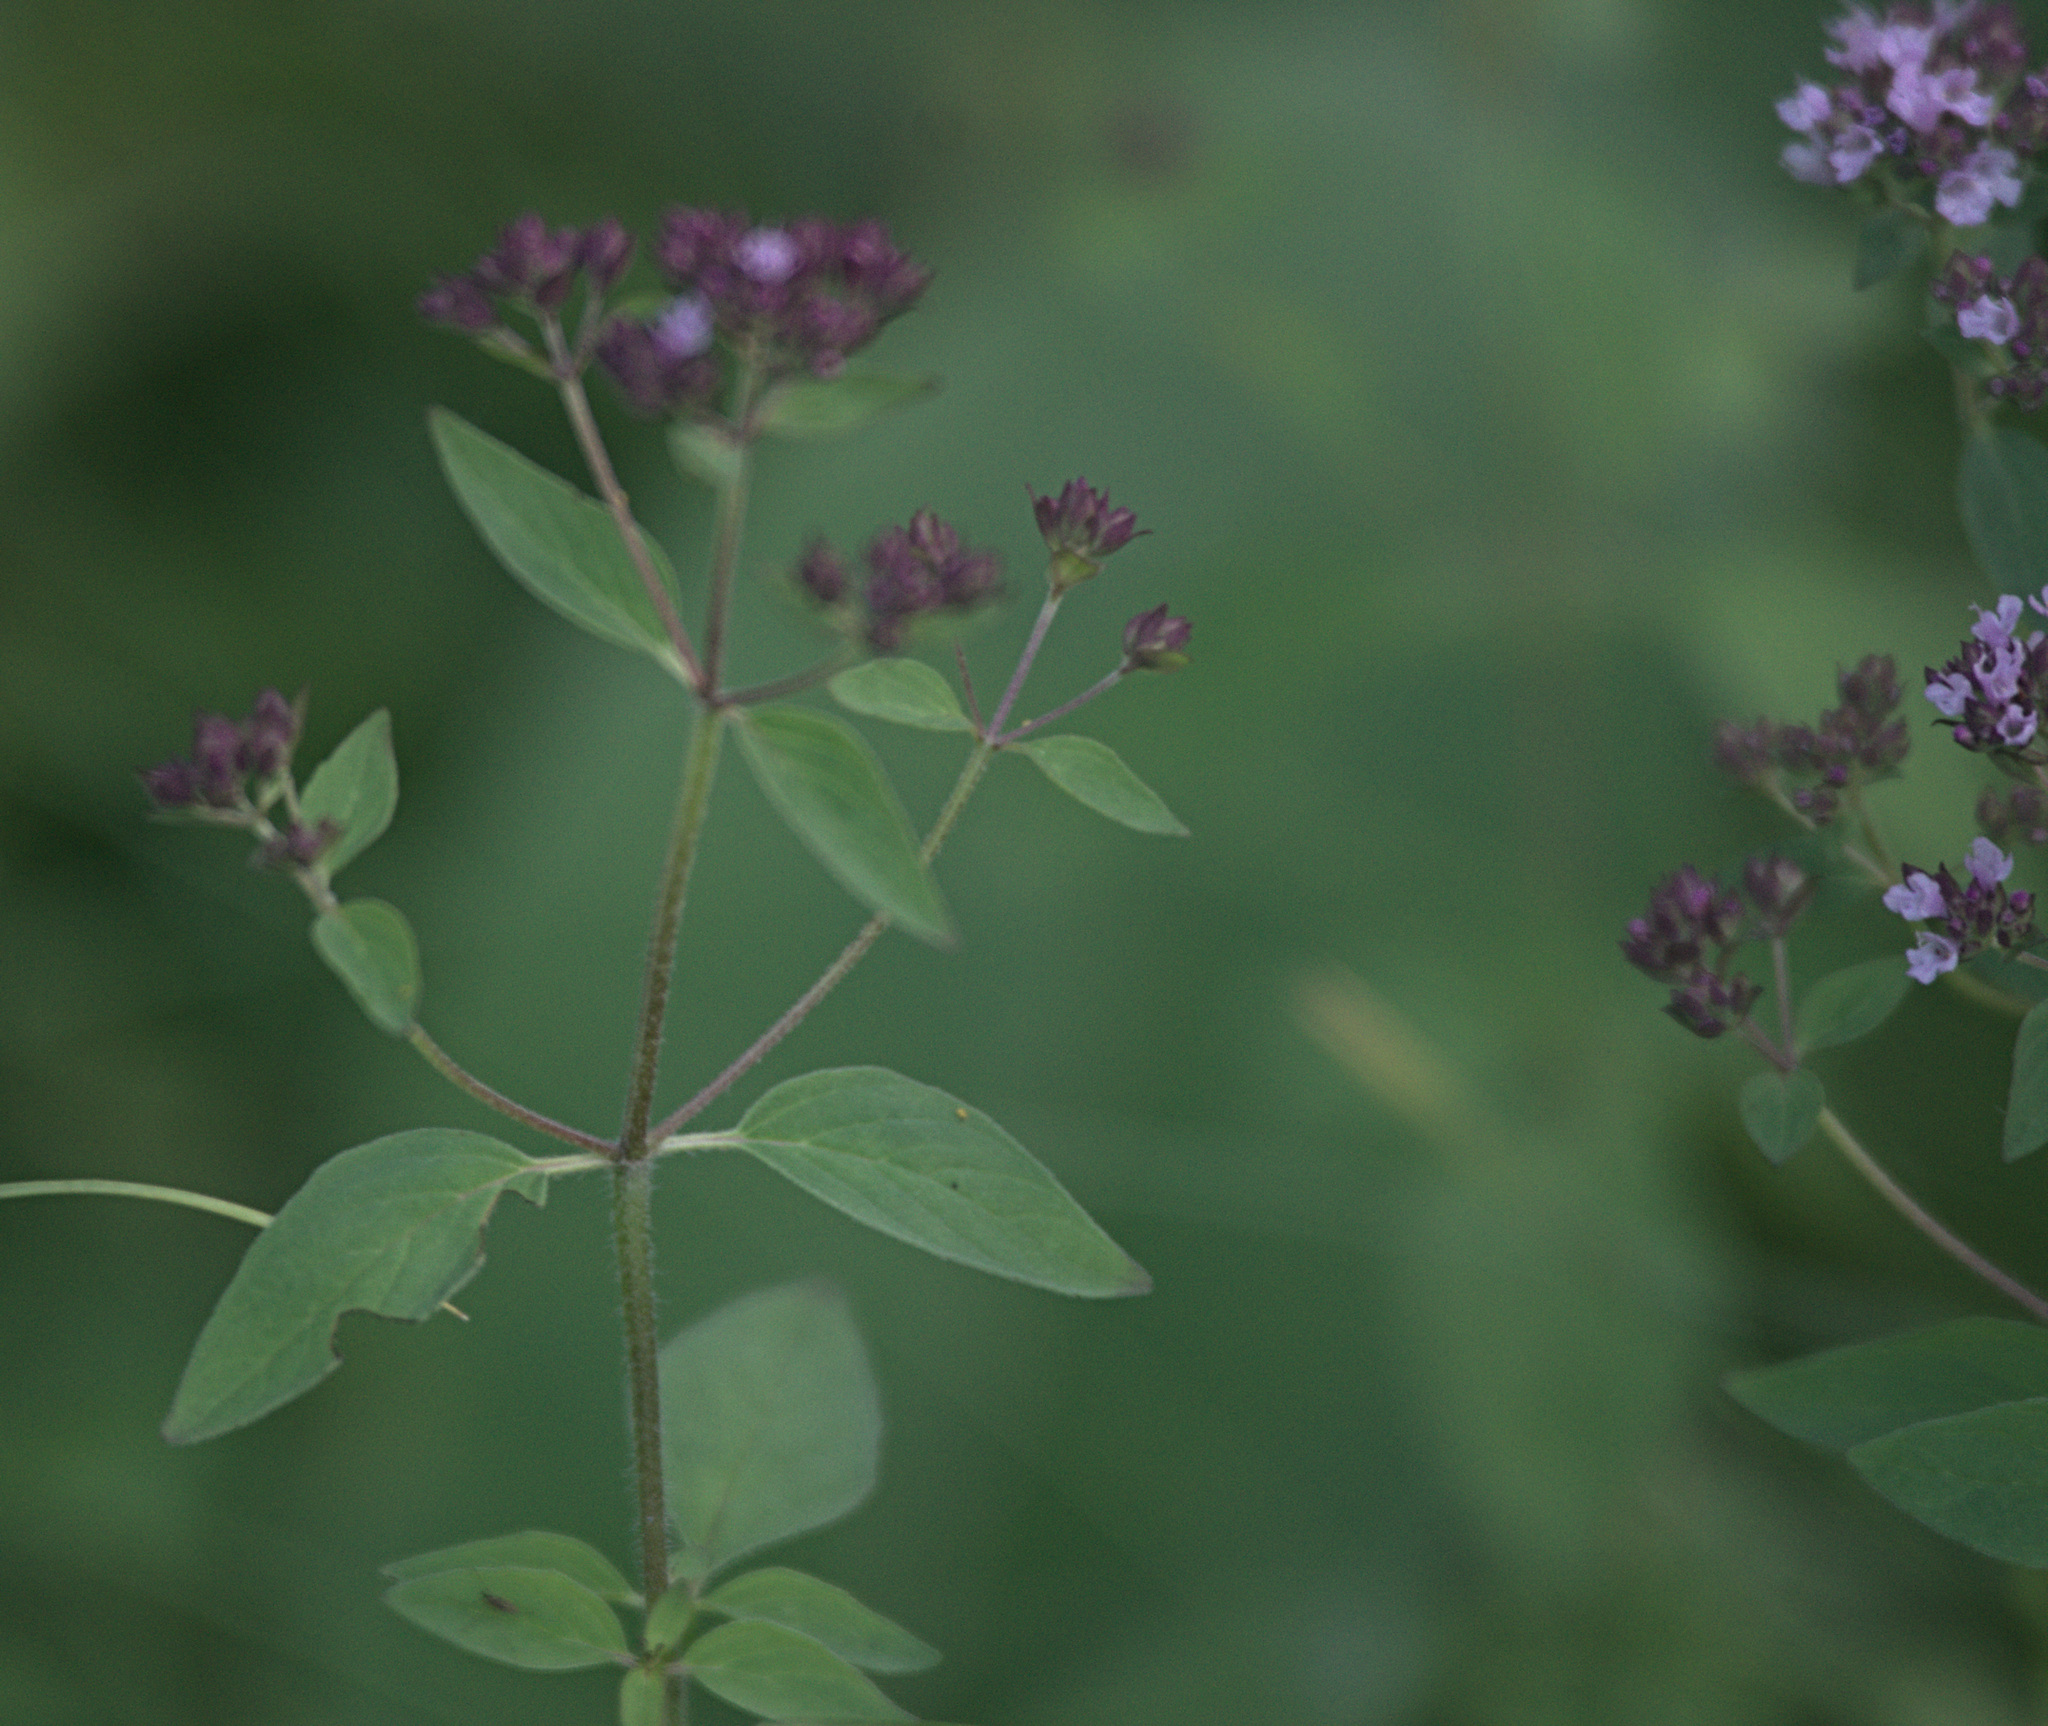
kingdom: Plantae
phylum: Tracheophyta
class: Magnoliopsida
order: Lamiales
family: Lamiaceae
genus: Origanum
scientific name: Origanum vulgare
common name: Wild marjoram
